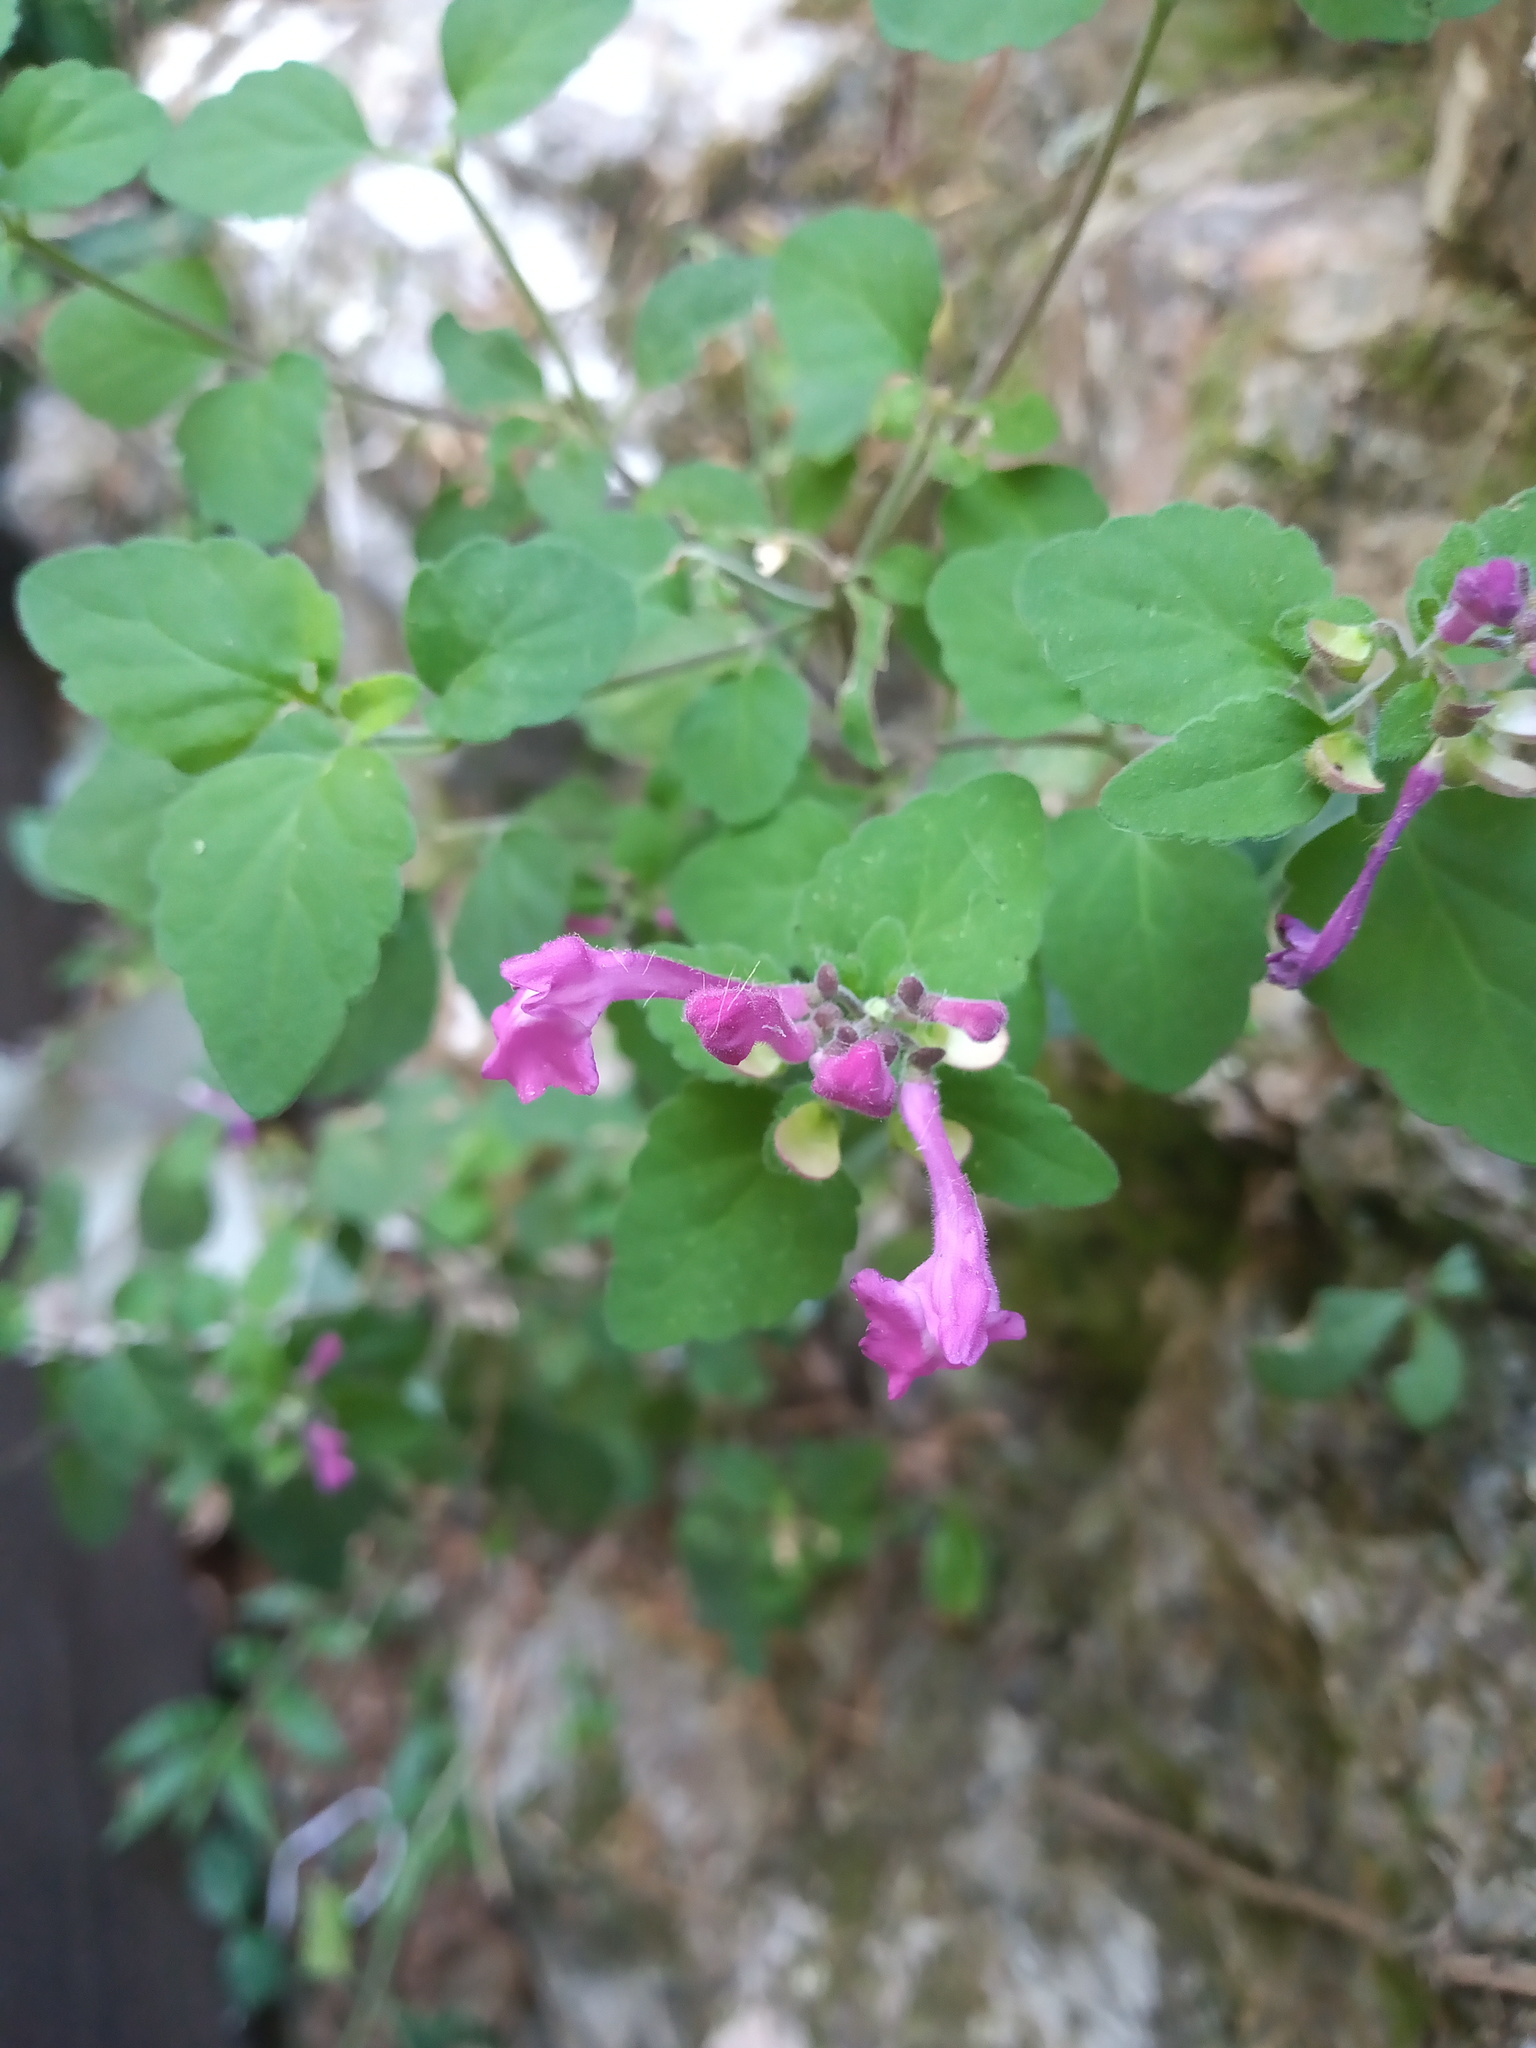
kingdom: Plantae
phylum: Tracheophyta
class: Magnoliopsida
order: Lamiales
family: Lamiaceae
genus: Scutellaria
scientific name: Scutellaria seleriana
